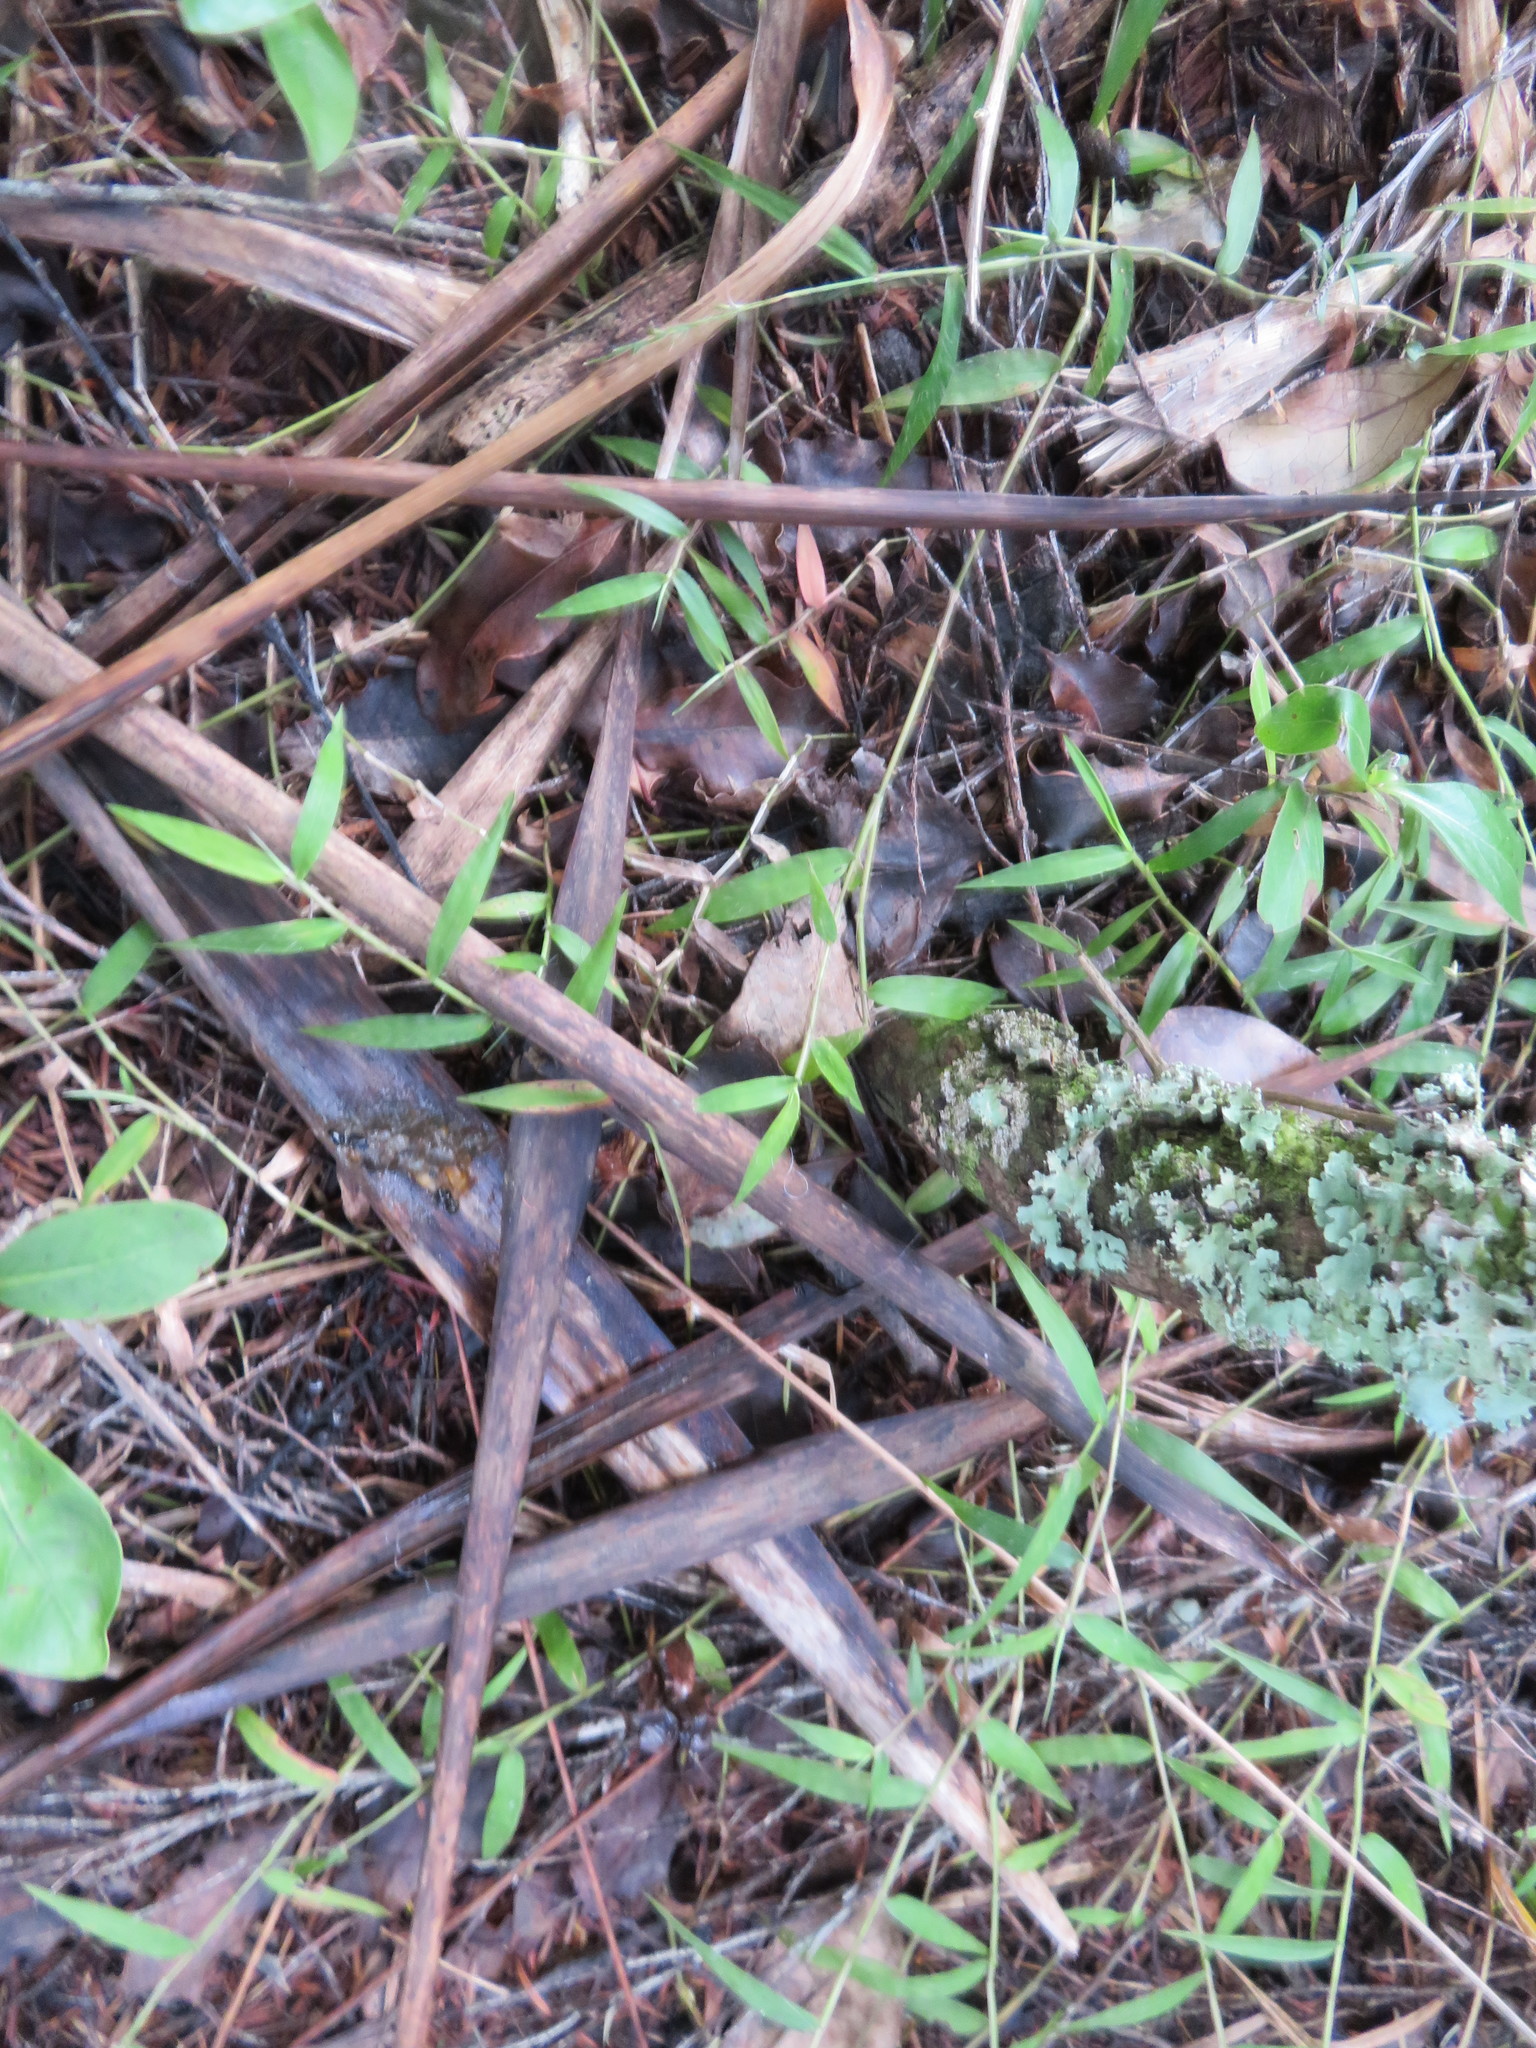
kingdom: Plantae
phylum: Tracheophyta
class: Liliopsida
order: Poales
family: Poaceae
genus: Oplismenus
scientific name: Oplismenus hirtellus
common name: Basketgrass
